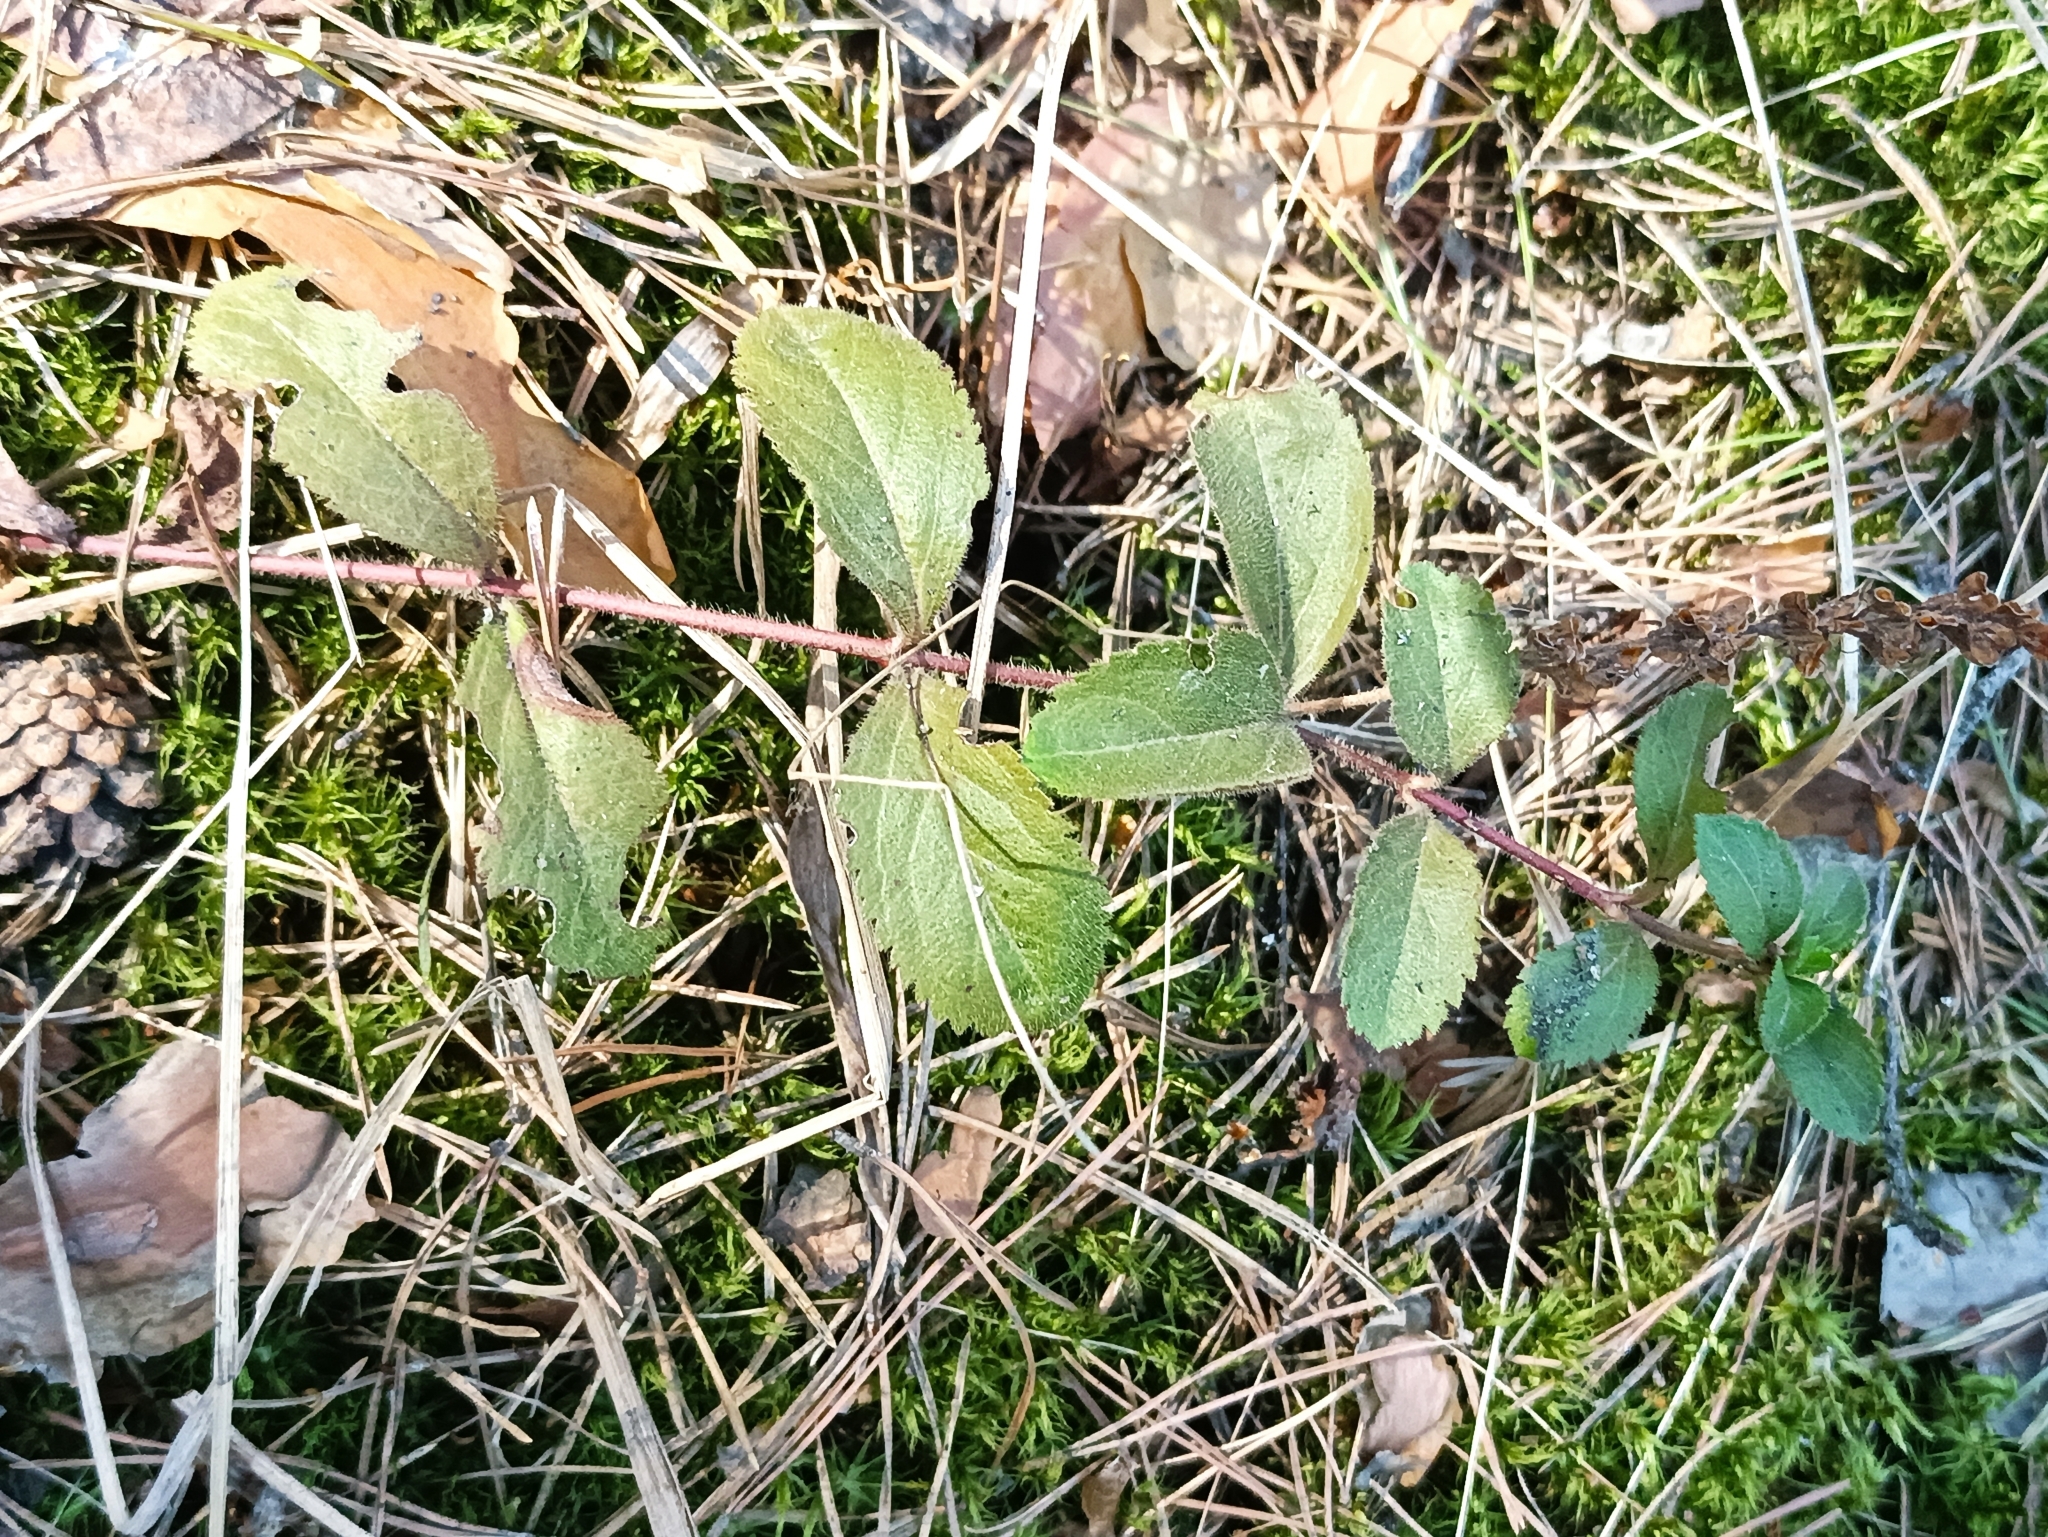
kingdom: Plantae
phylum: Tracheophyta
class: Magnoliopsida
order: Lamiales
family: Plantaginaceae
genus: Veronica
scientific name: Veronica officinalis
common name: Common speedwell
